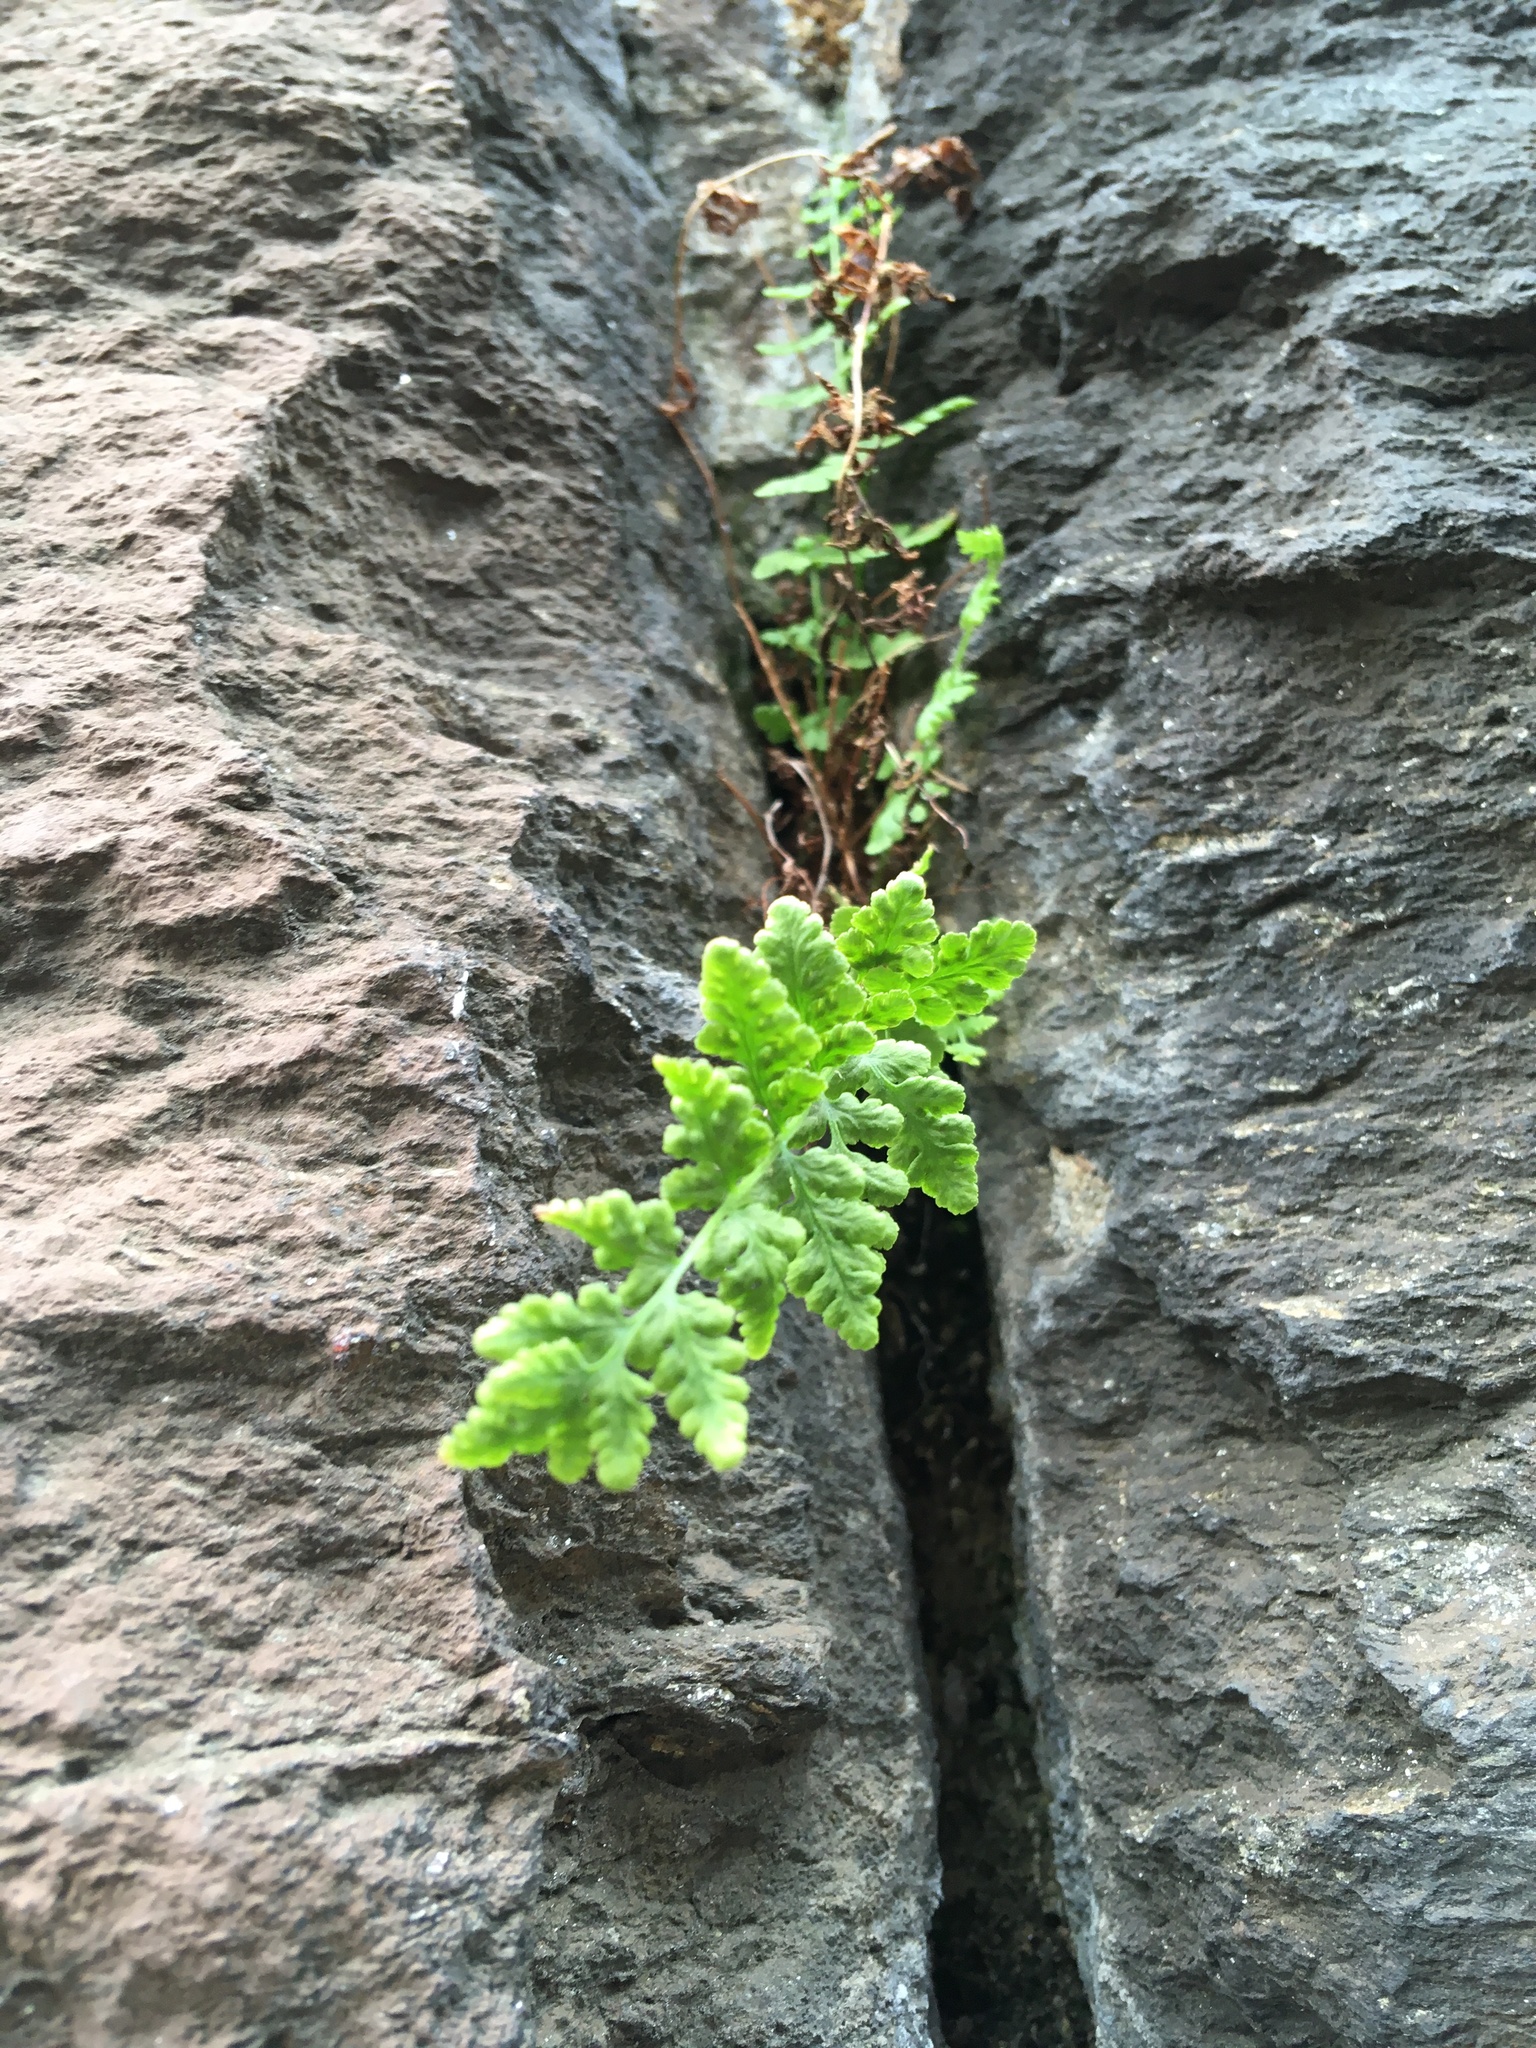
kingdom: Plantae
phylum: Tracheophyta
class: Polypodiopsida
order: Polypodiales
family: Woodsiaceae
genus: Physematium
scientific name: Physematium obtusum
